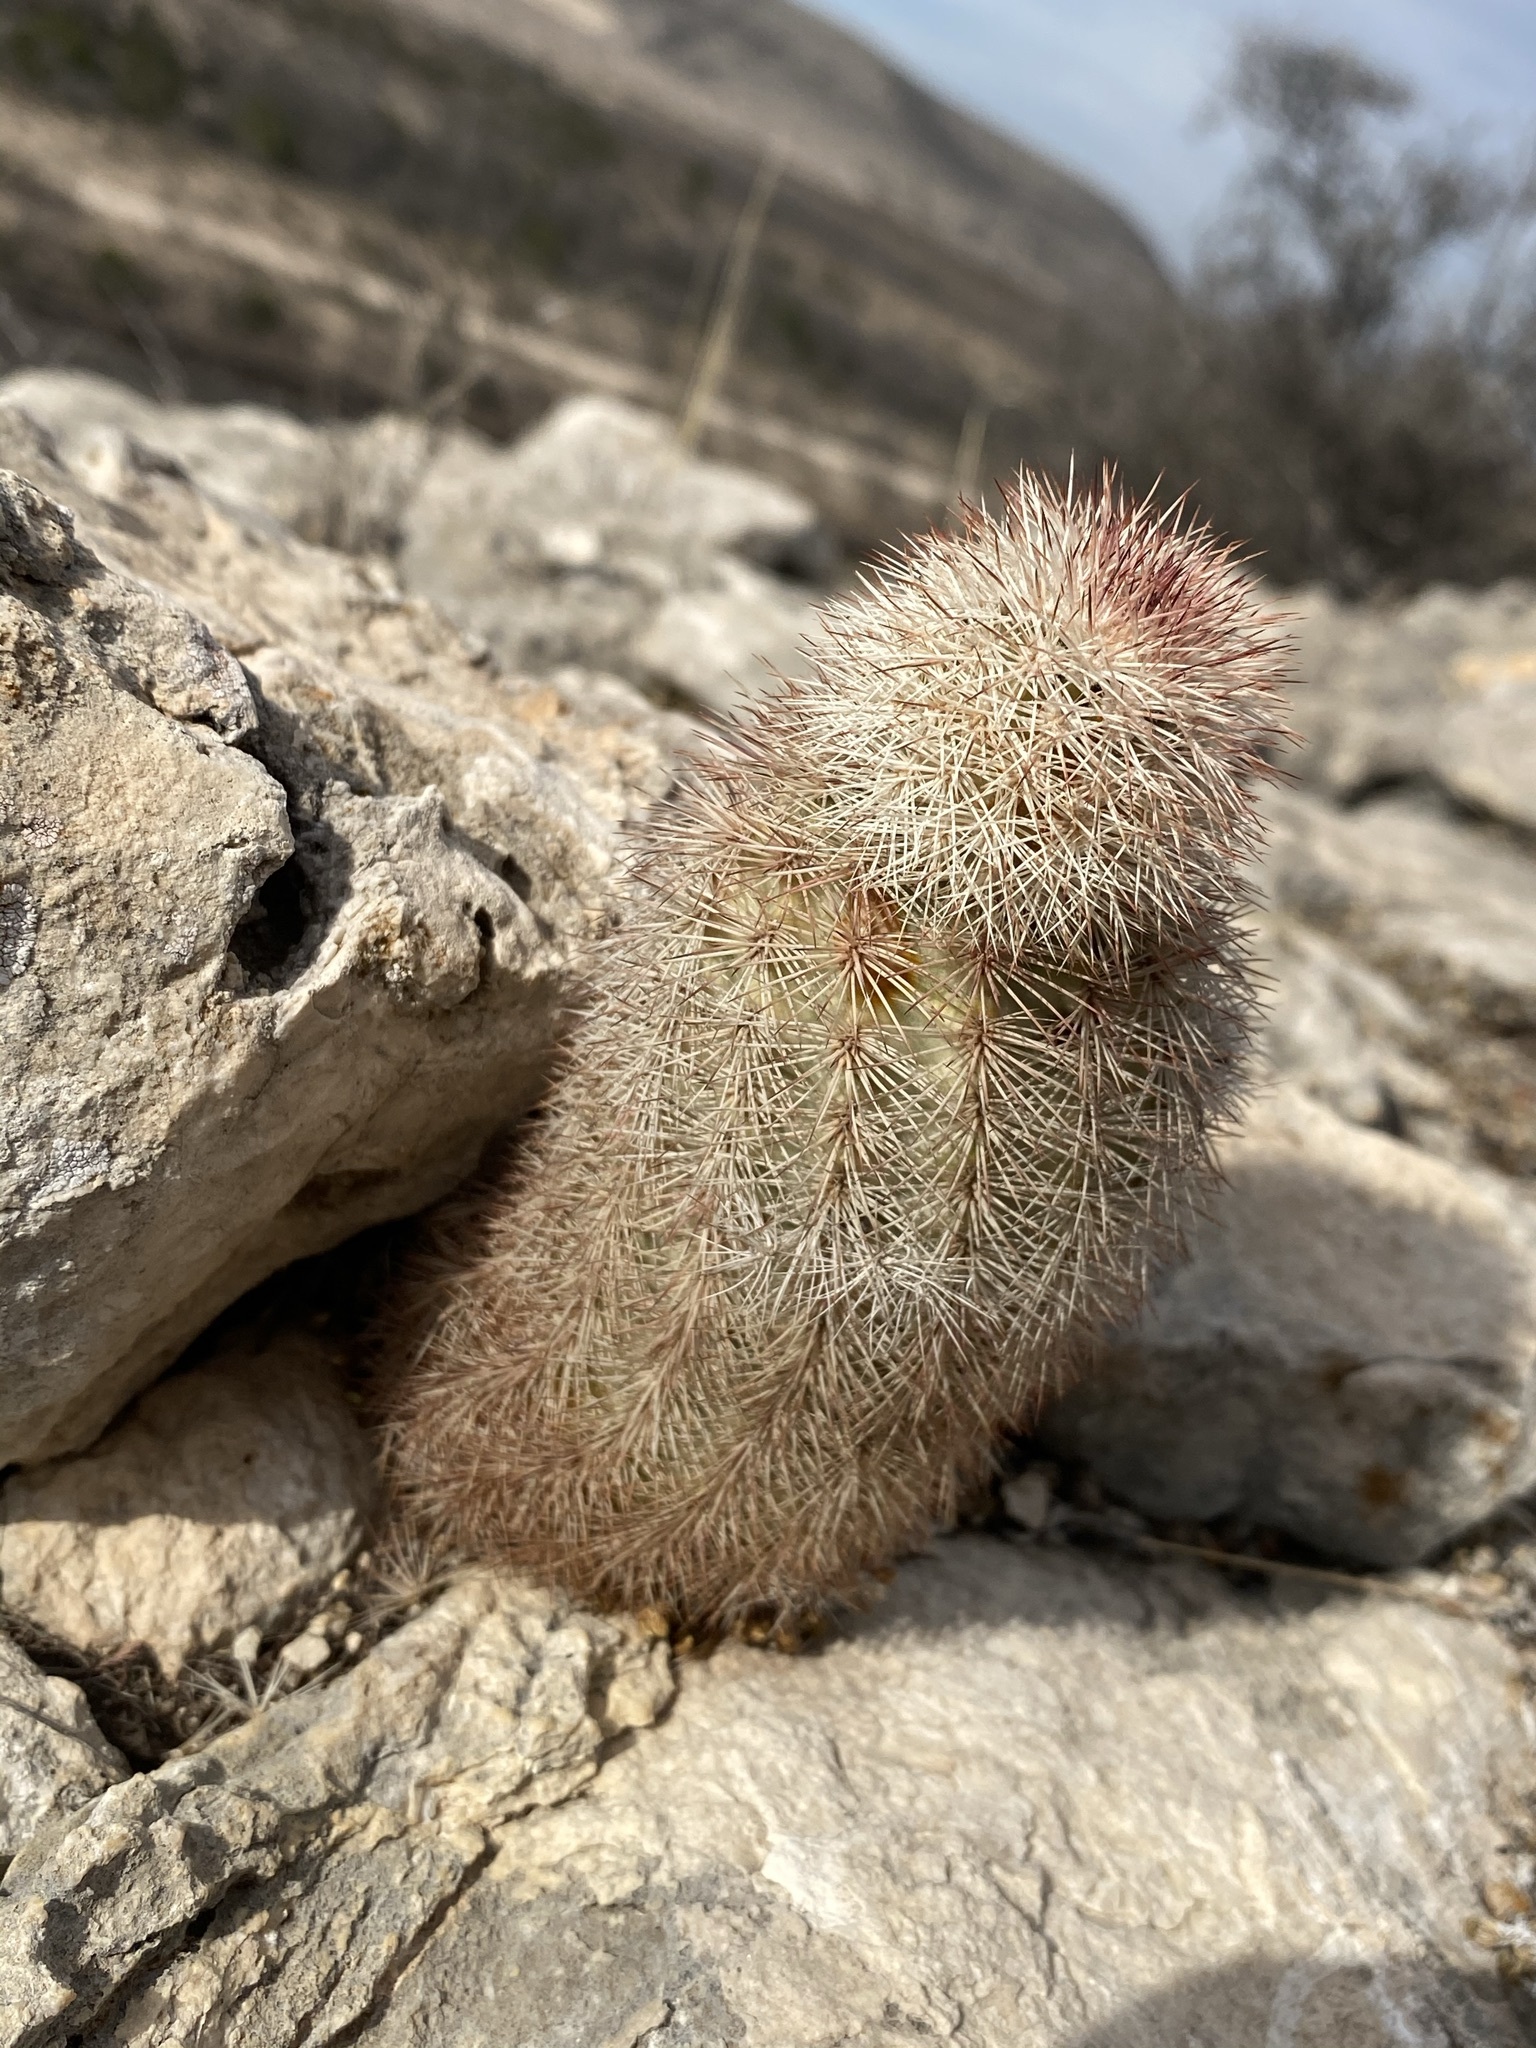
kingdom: Plantae
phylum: Tracheophyta
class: Magnoliopsida
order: Caryophyllales
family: Cactaceae
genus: Echinocereus
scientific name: Echinocereus dasyacanthus
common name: Spiny hedgehog cactus
